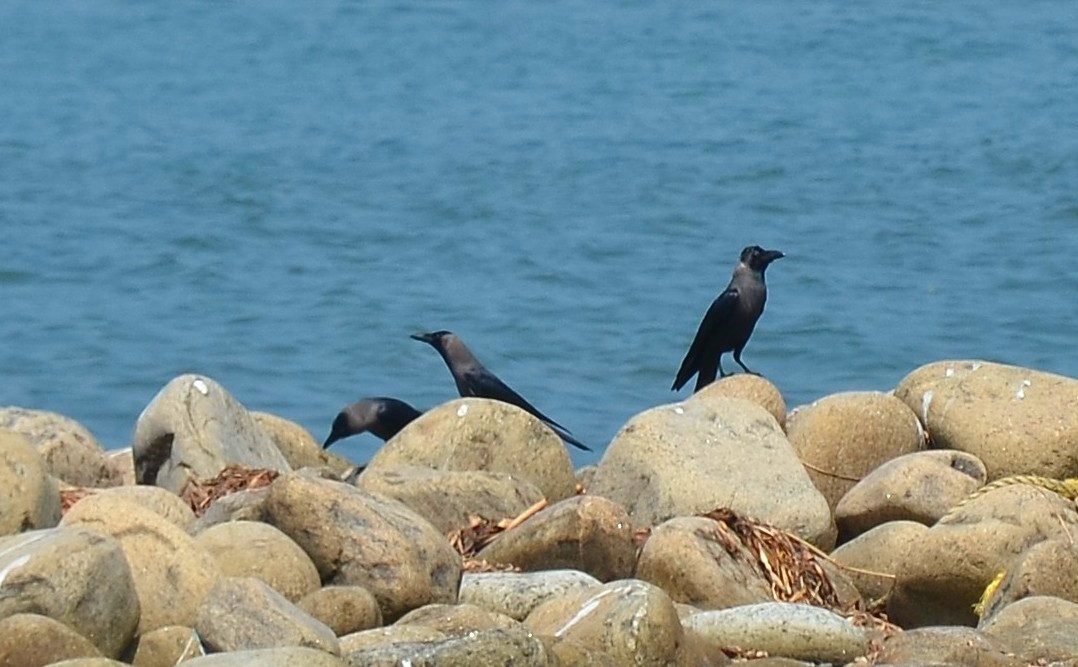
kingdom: Animalia
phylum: Chordata
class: Aves
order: Passeriformes
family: Corvidae
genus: Corvus
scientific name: Corvus splendens
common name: House crow
